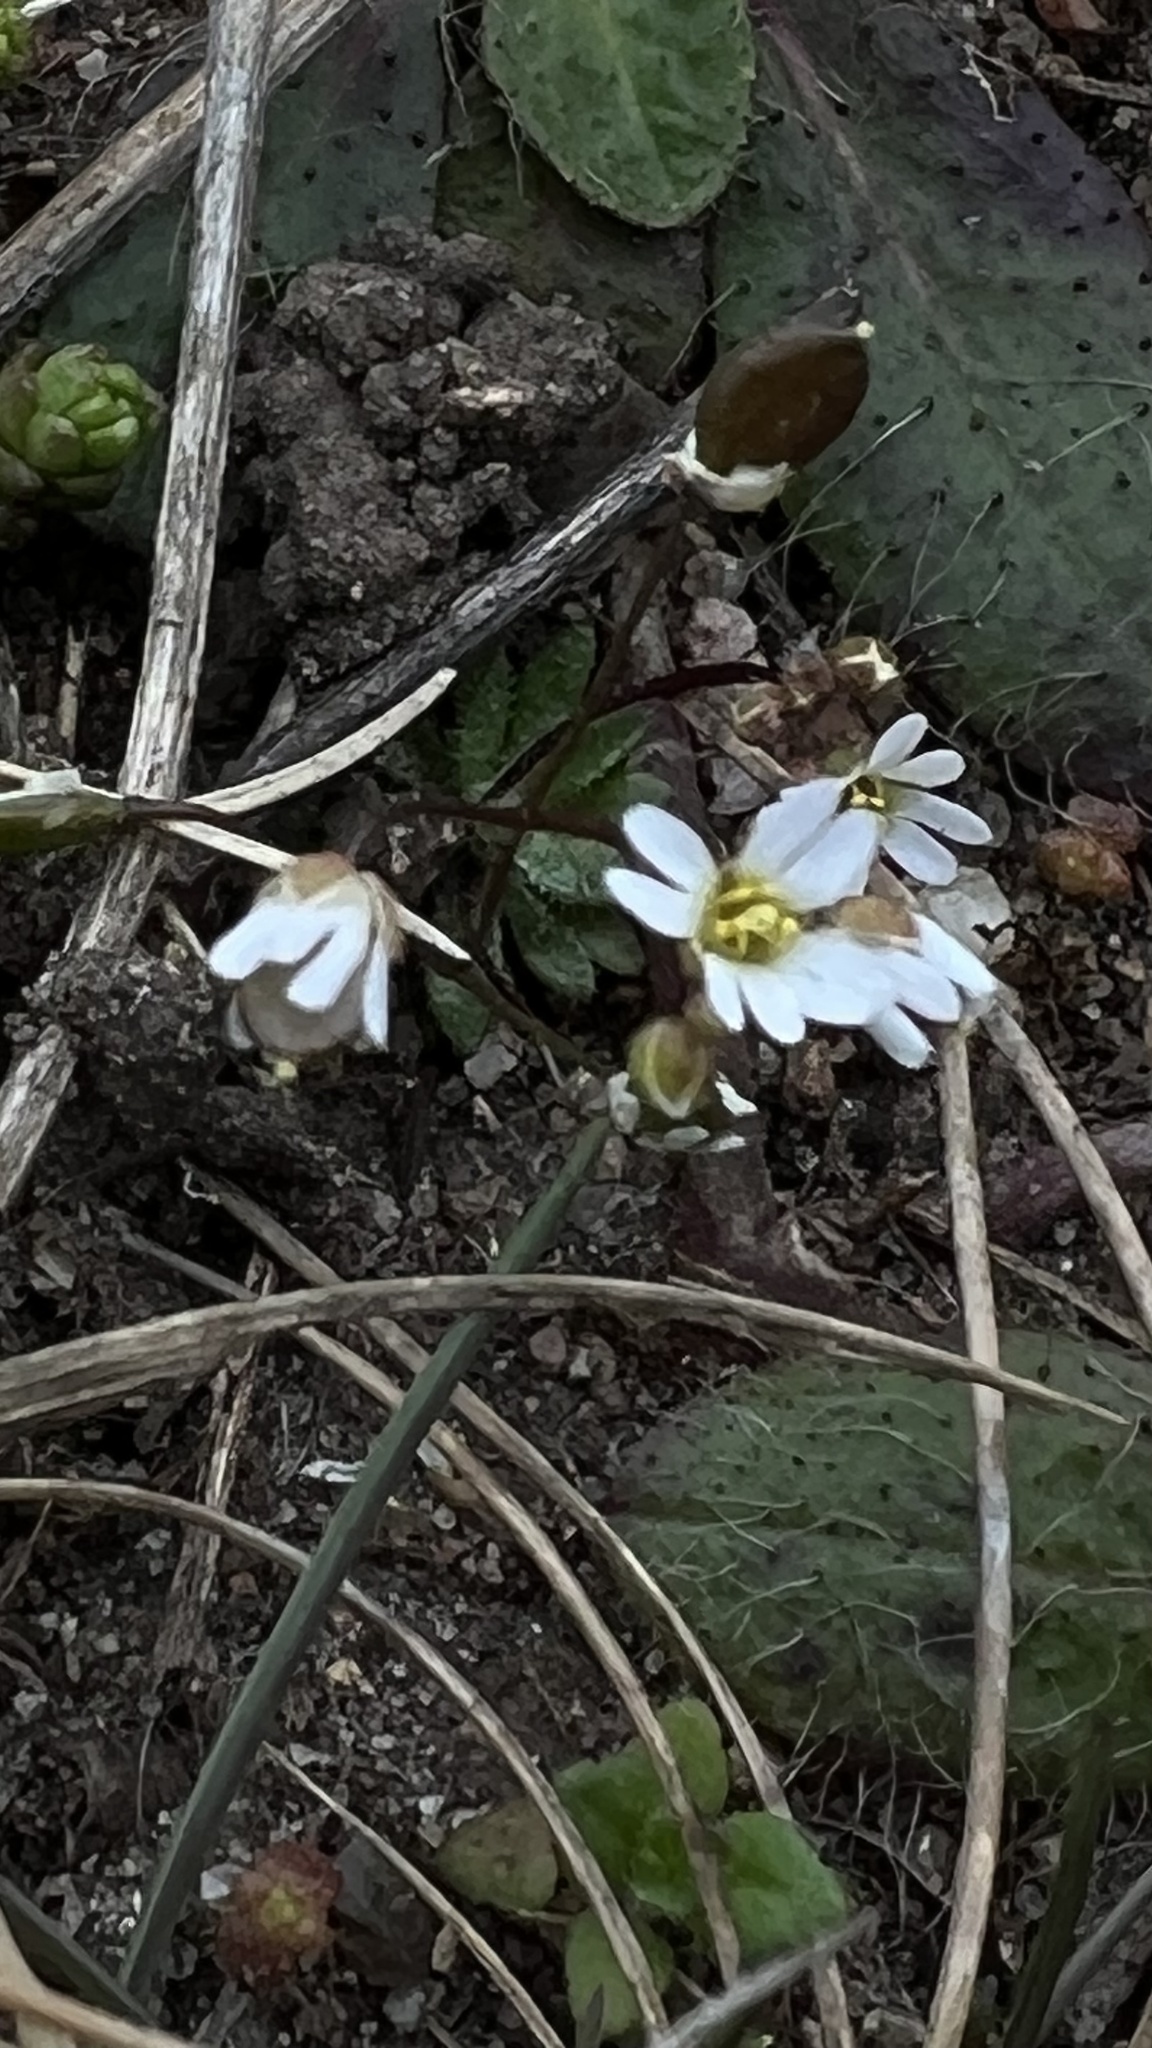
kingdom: Plantae
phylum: Tracheophyta
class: Magnoliopsida
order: Brassicales
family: Brassicaceae
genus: Draba
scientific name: Draba verna
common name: Spring draba
